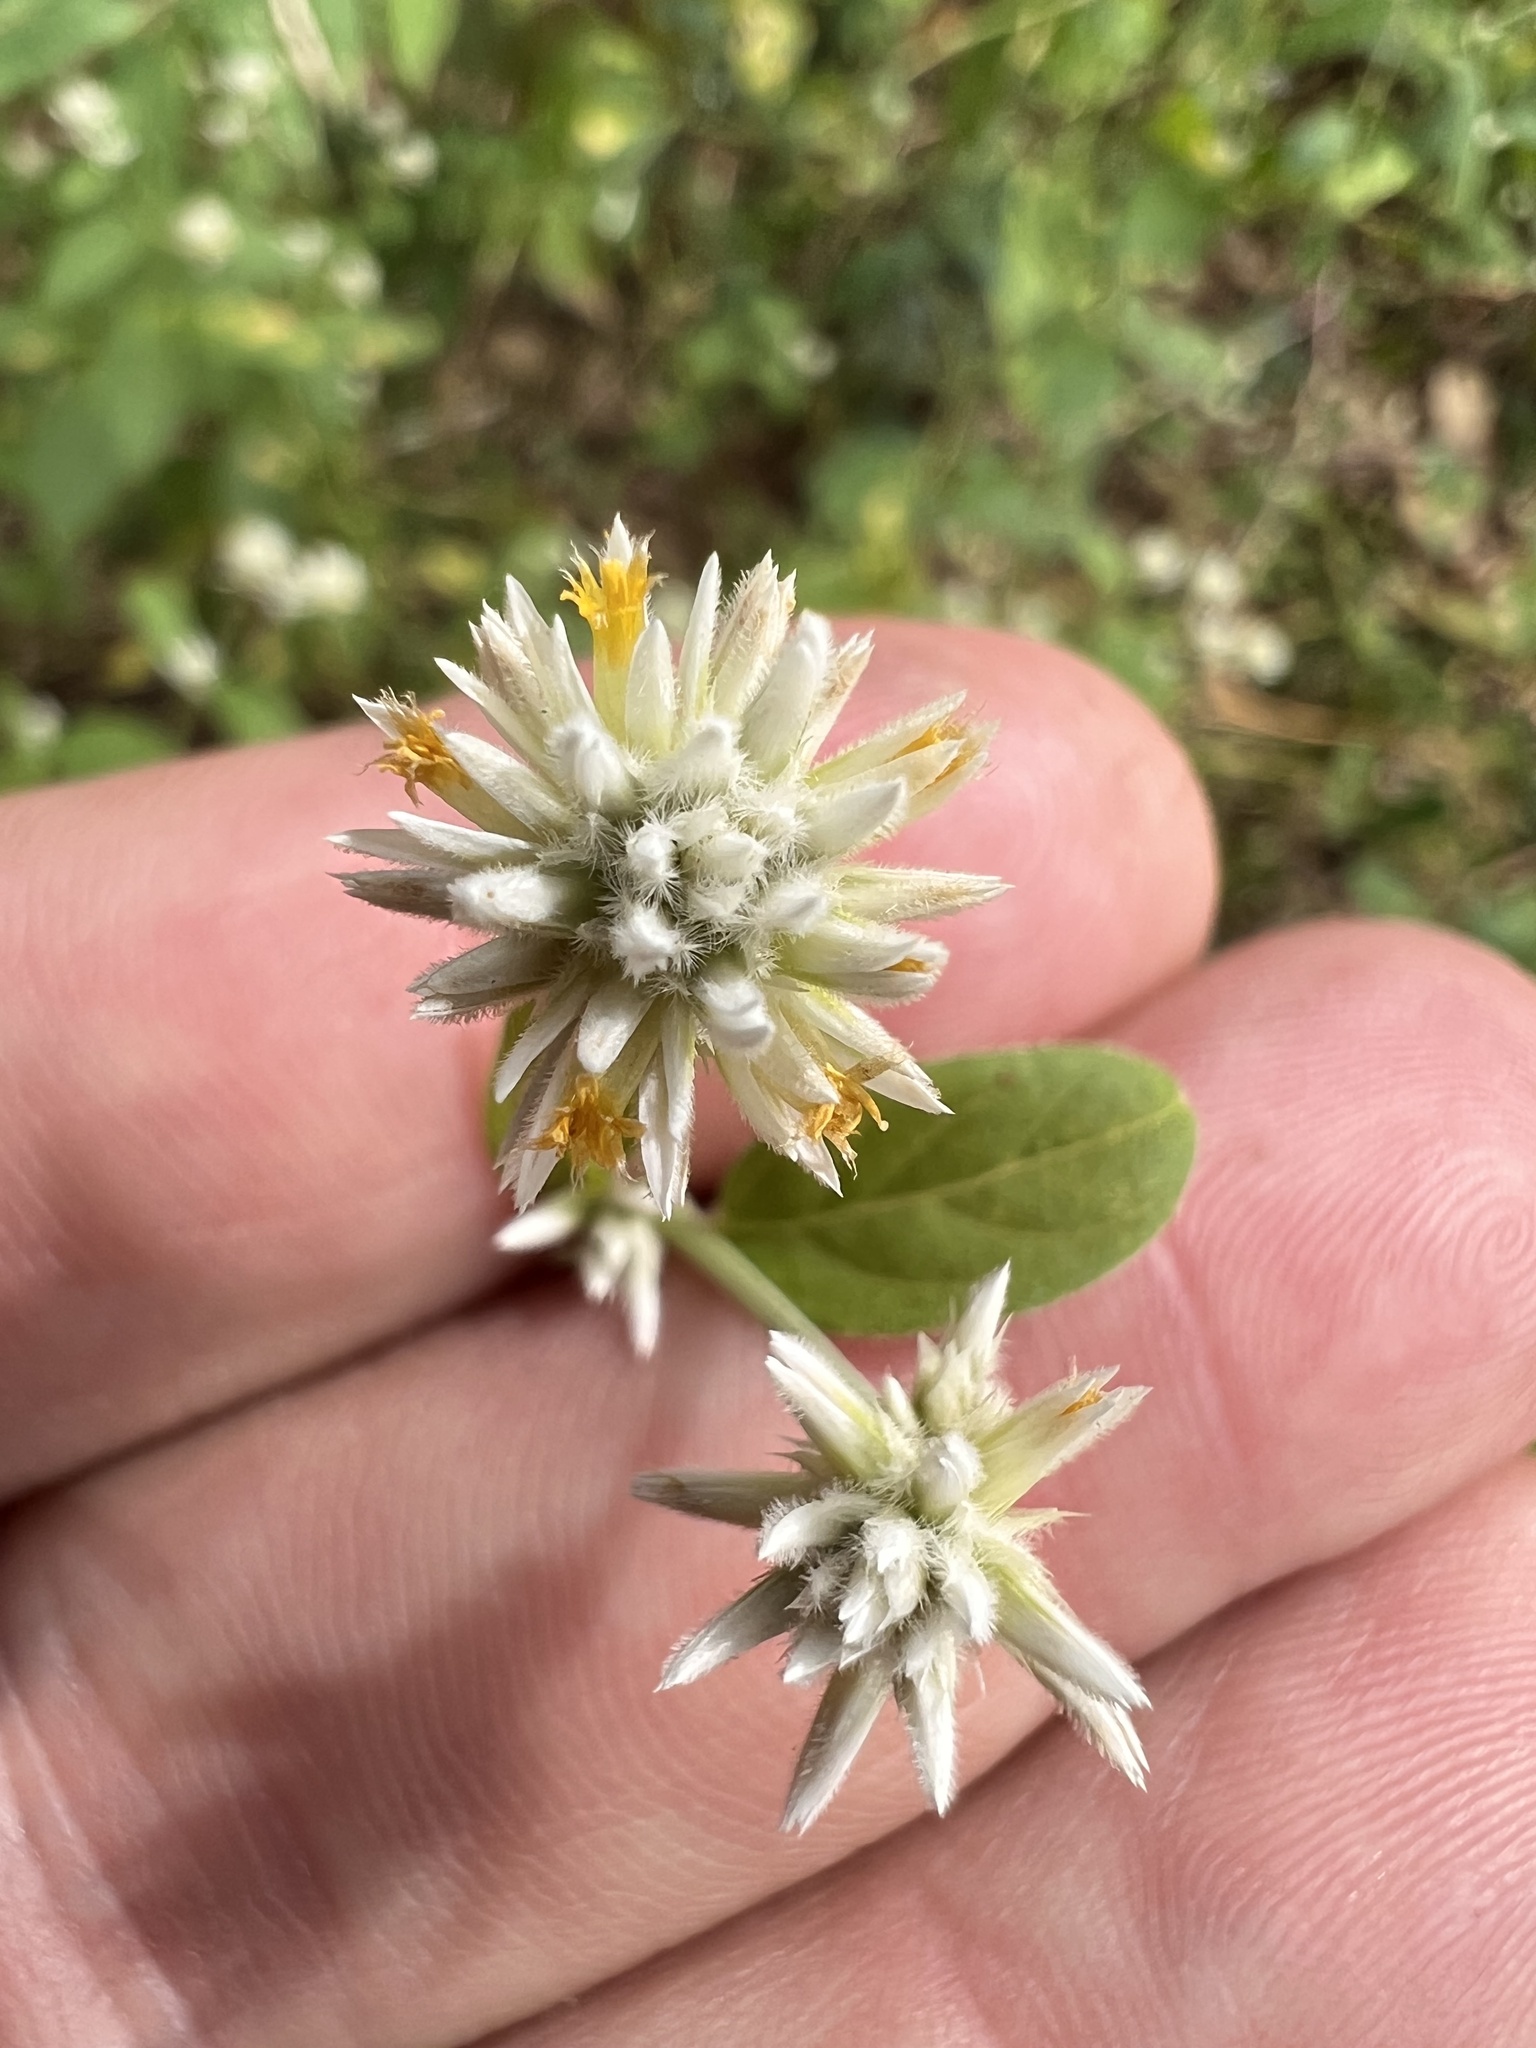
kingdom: Plantae
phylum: Tracheophyta
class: Magnoliopsida
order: Caryophyllales
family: Amaranthaceae
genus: Gomphrena
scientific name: Gomphrena serrata
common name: Arrasa con todo
